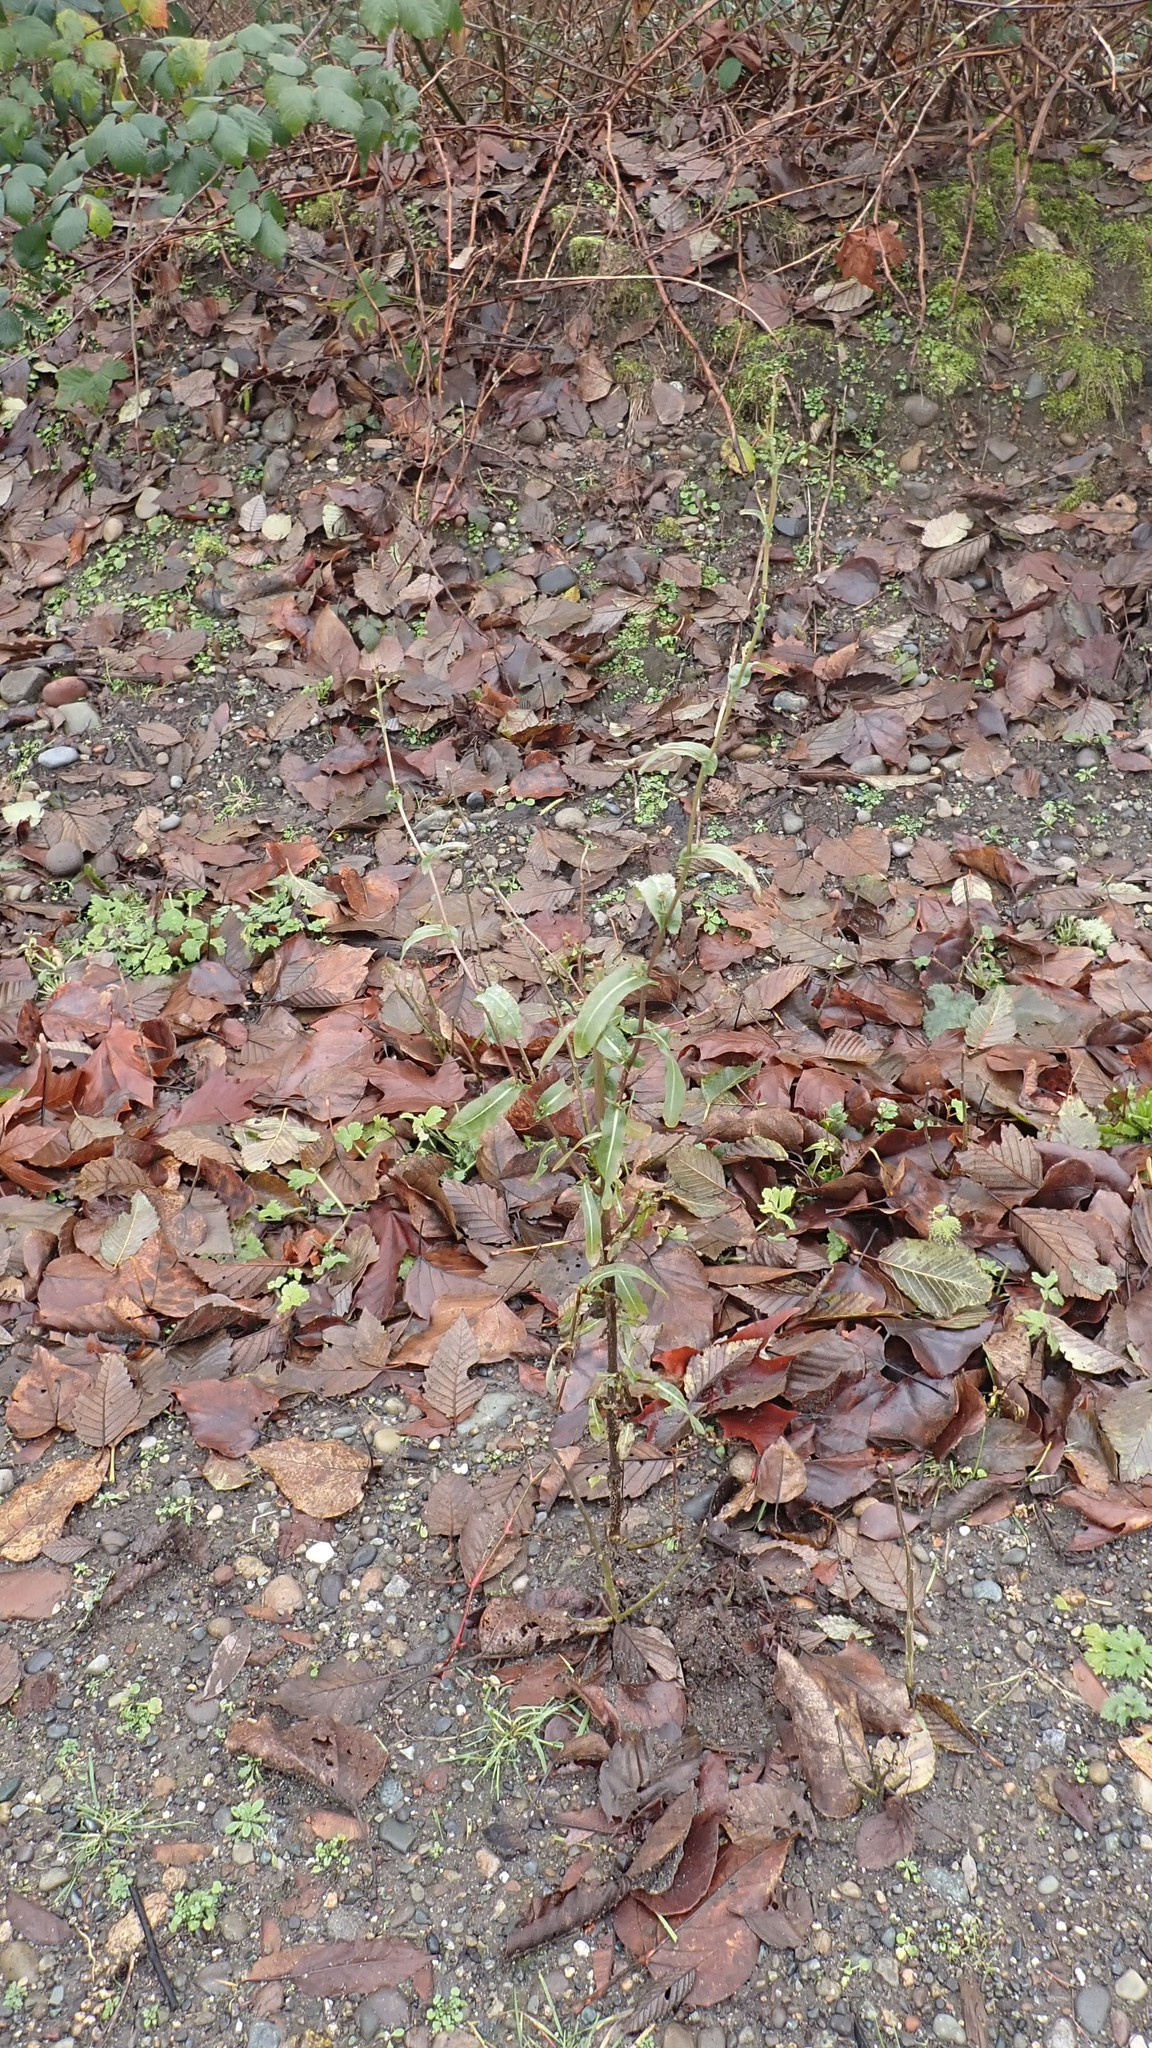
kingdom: Plantae
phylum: Tracheophyta
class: Magnoliopsida
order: Asterales
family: Asteraceae
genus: Lactuca
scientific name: Lactuca serriola
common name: Prickly lettuce
